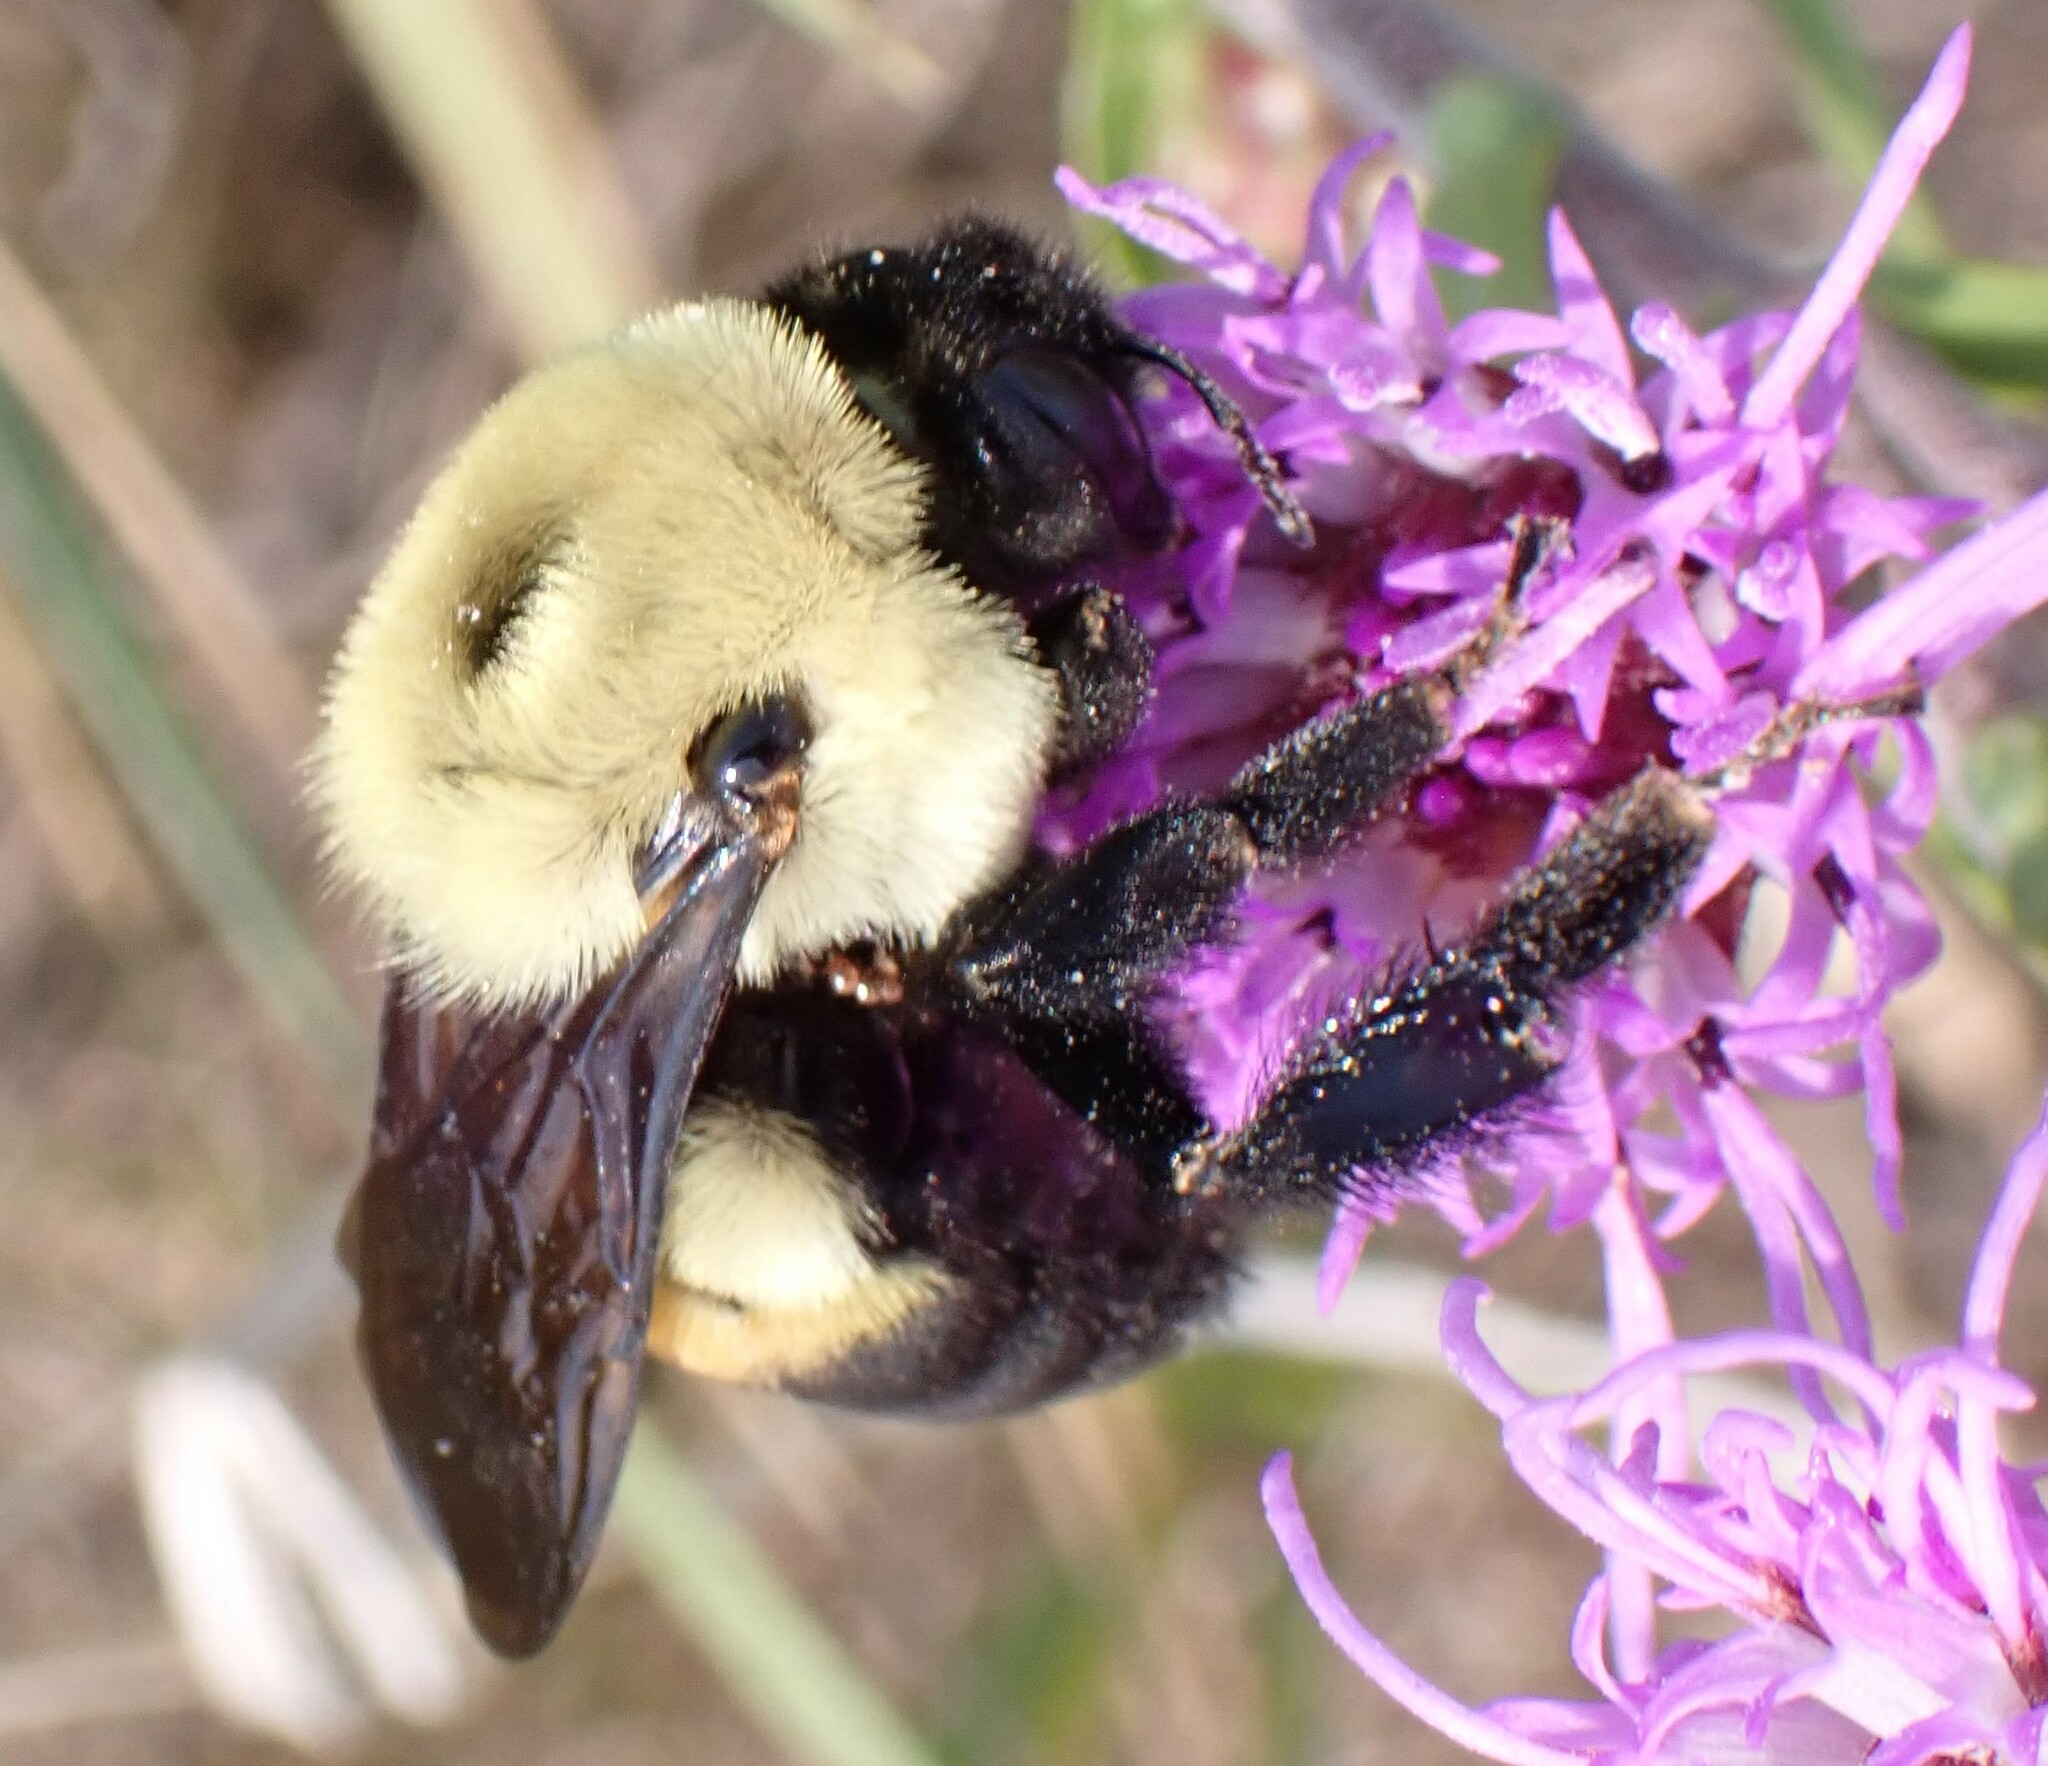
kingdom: Animalia
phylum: Arthropoda
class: Insecta
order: Hymenoptera
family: Apidae
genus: Bombus
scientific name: Bombus griseocollis
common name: Brown-belted bumble bee
